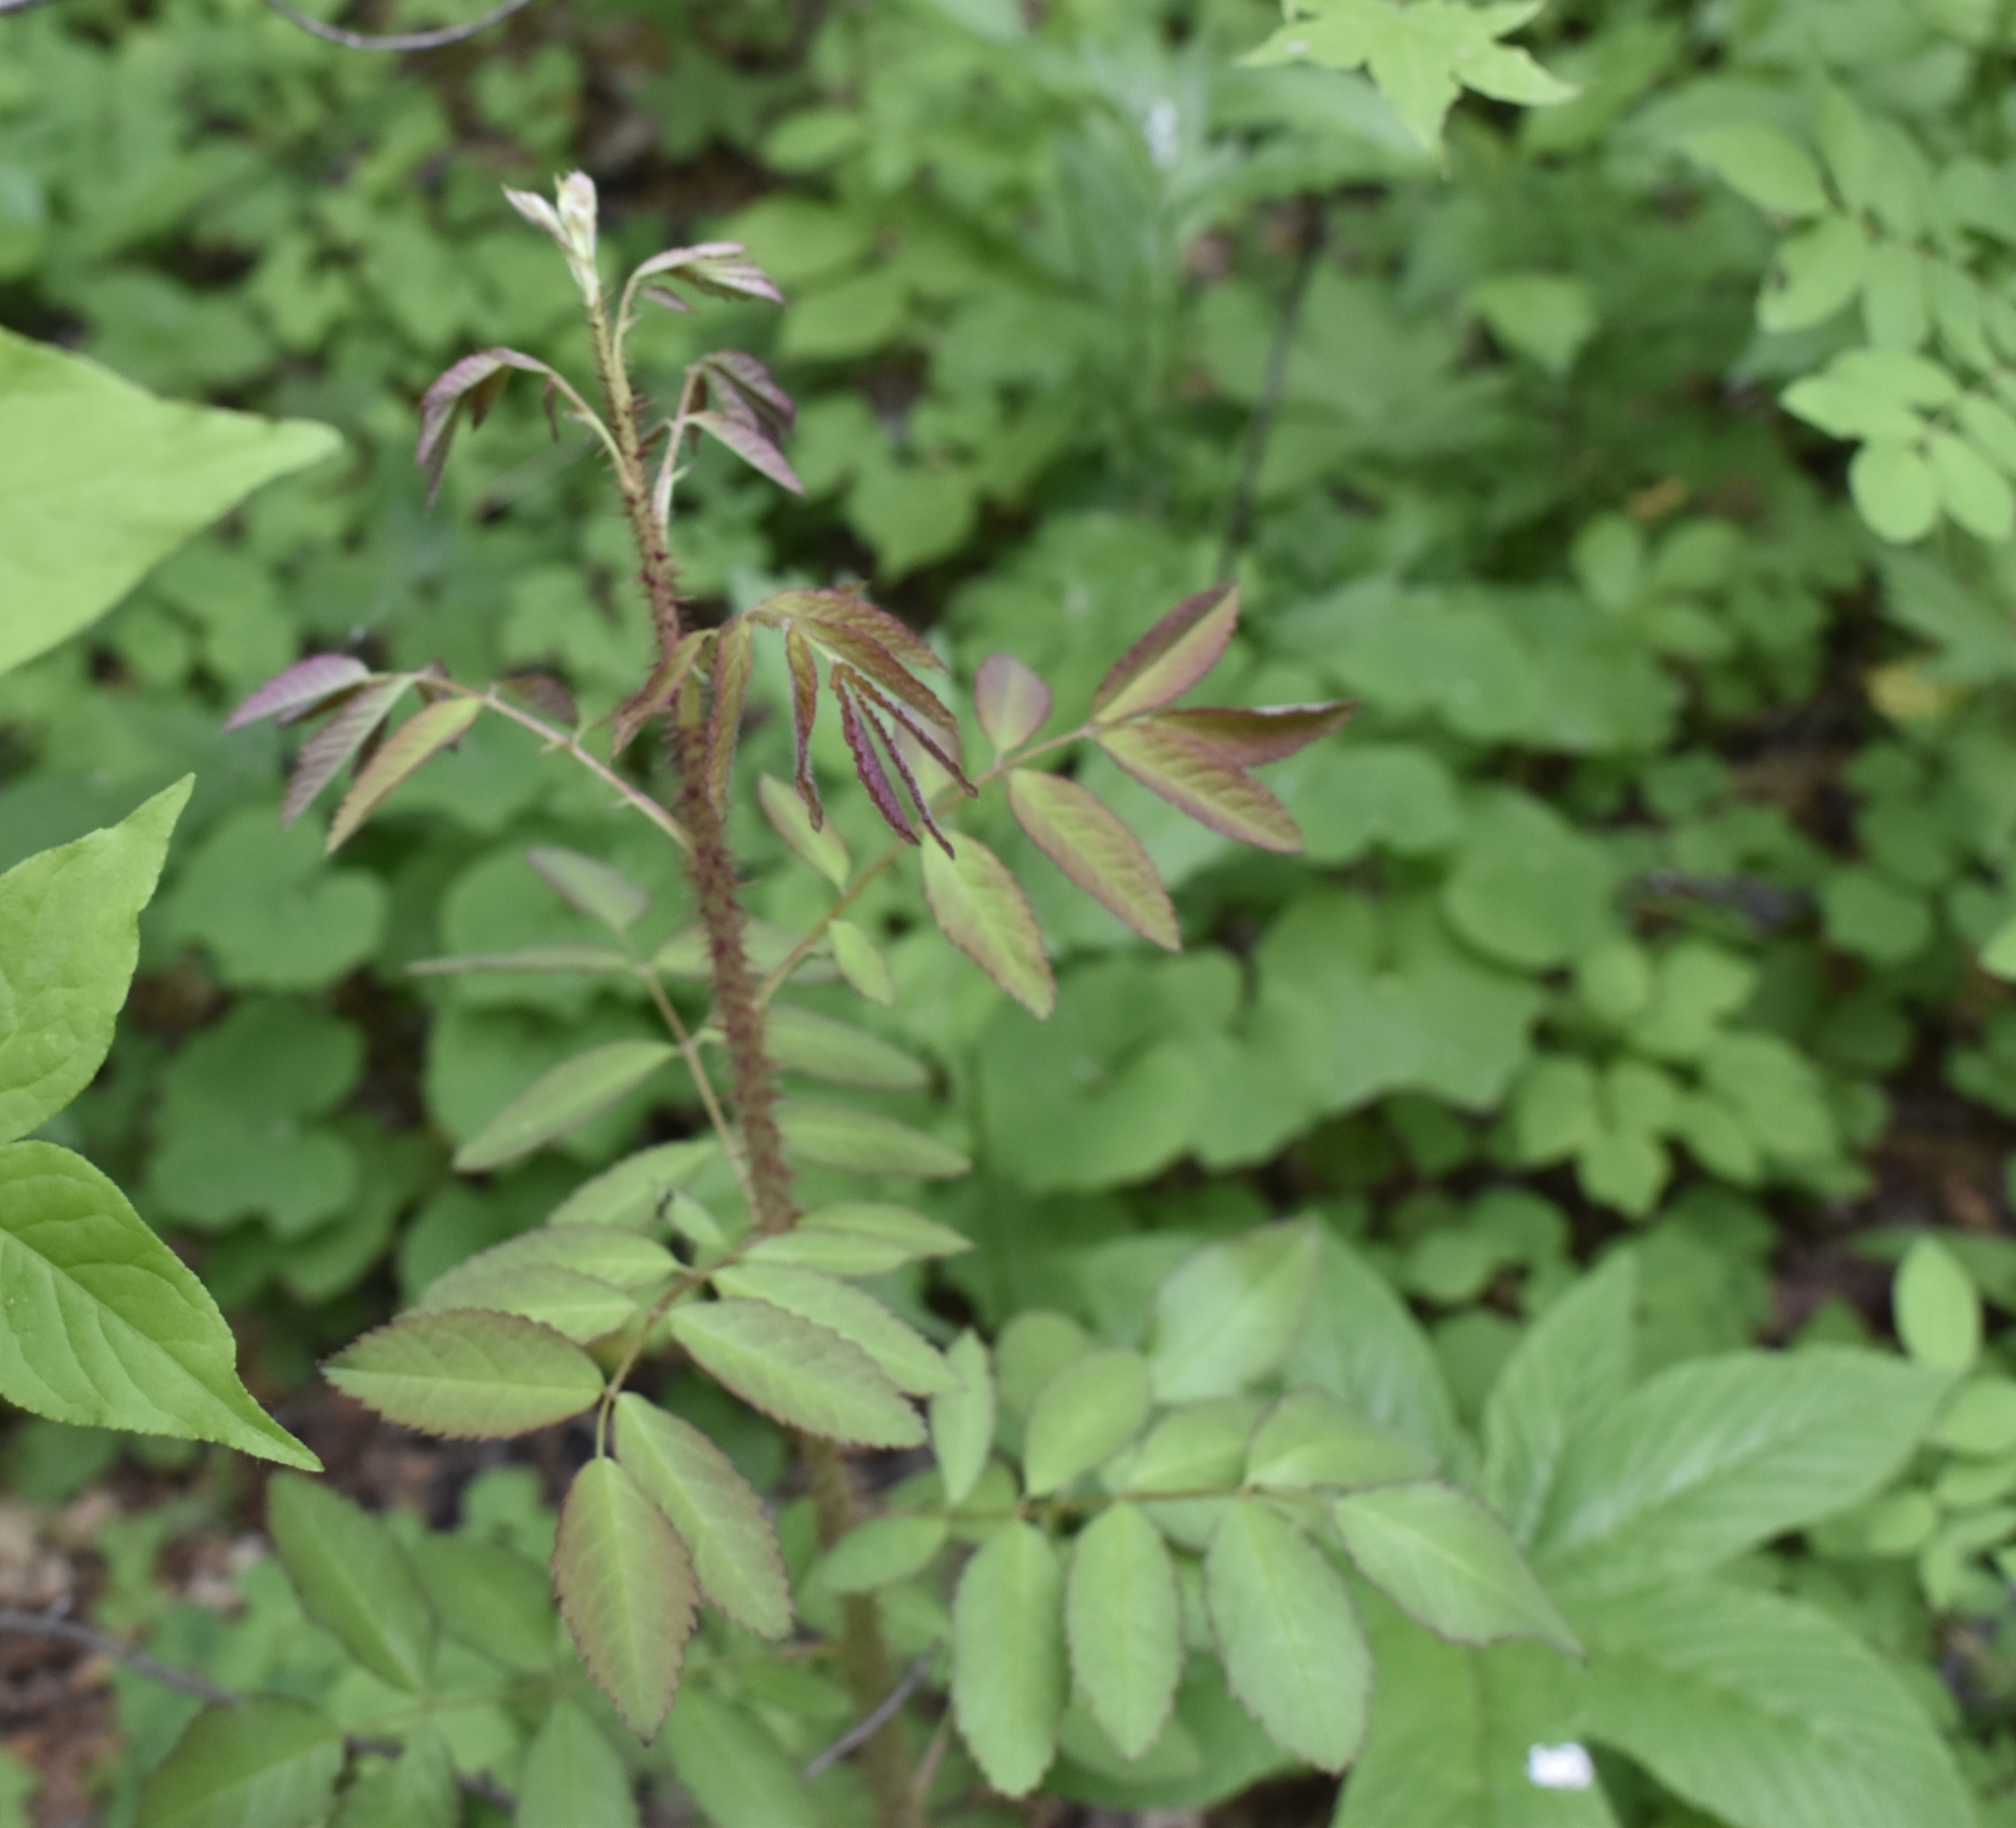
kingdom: Plantae
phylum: Tracheophyta
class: Magnoliopsida
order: Rosales
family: Rosaceae
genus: Rosa
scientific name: Rosa acicularis
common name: Prickly rose
